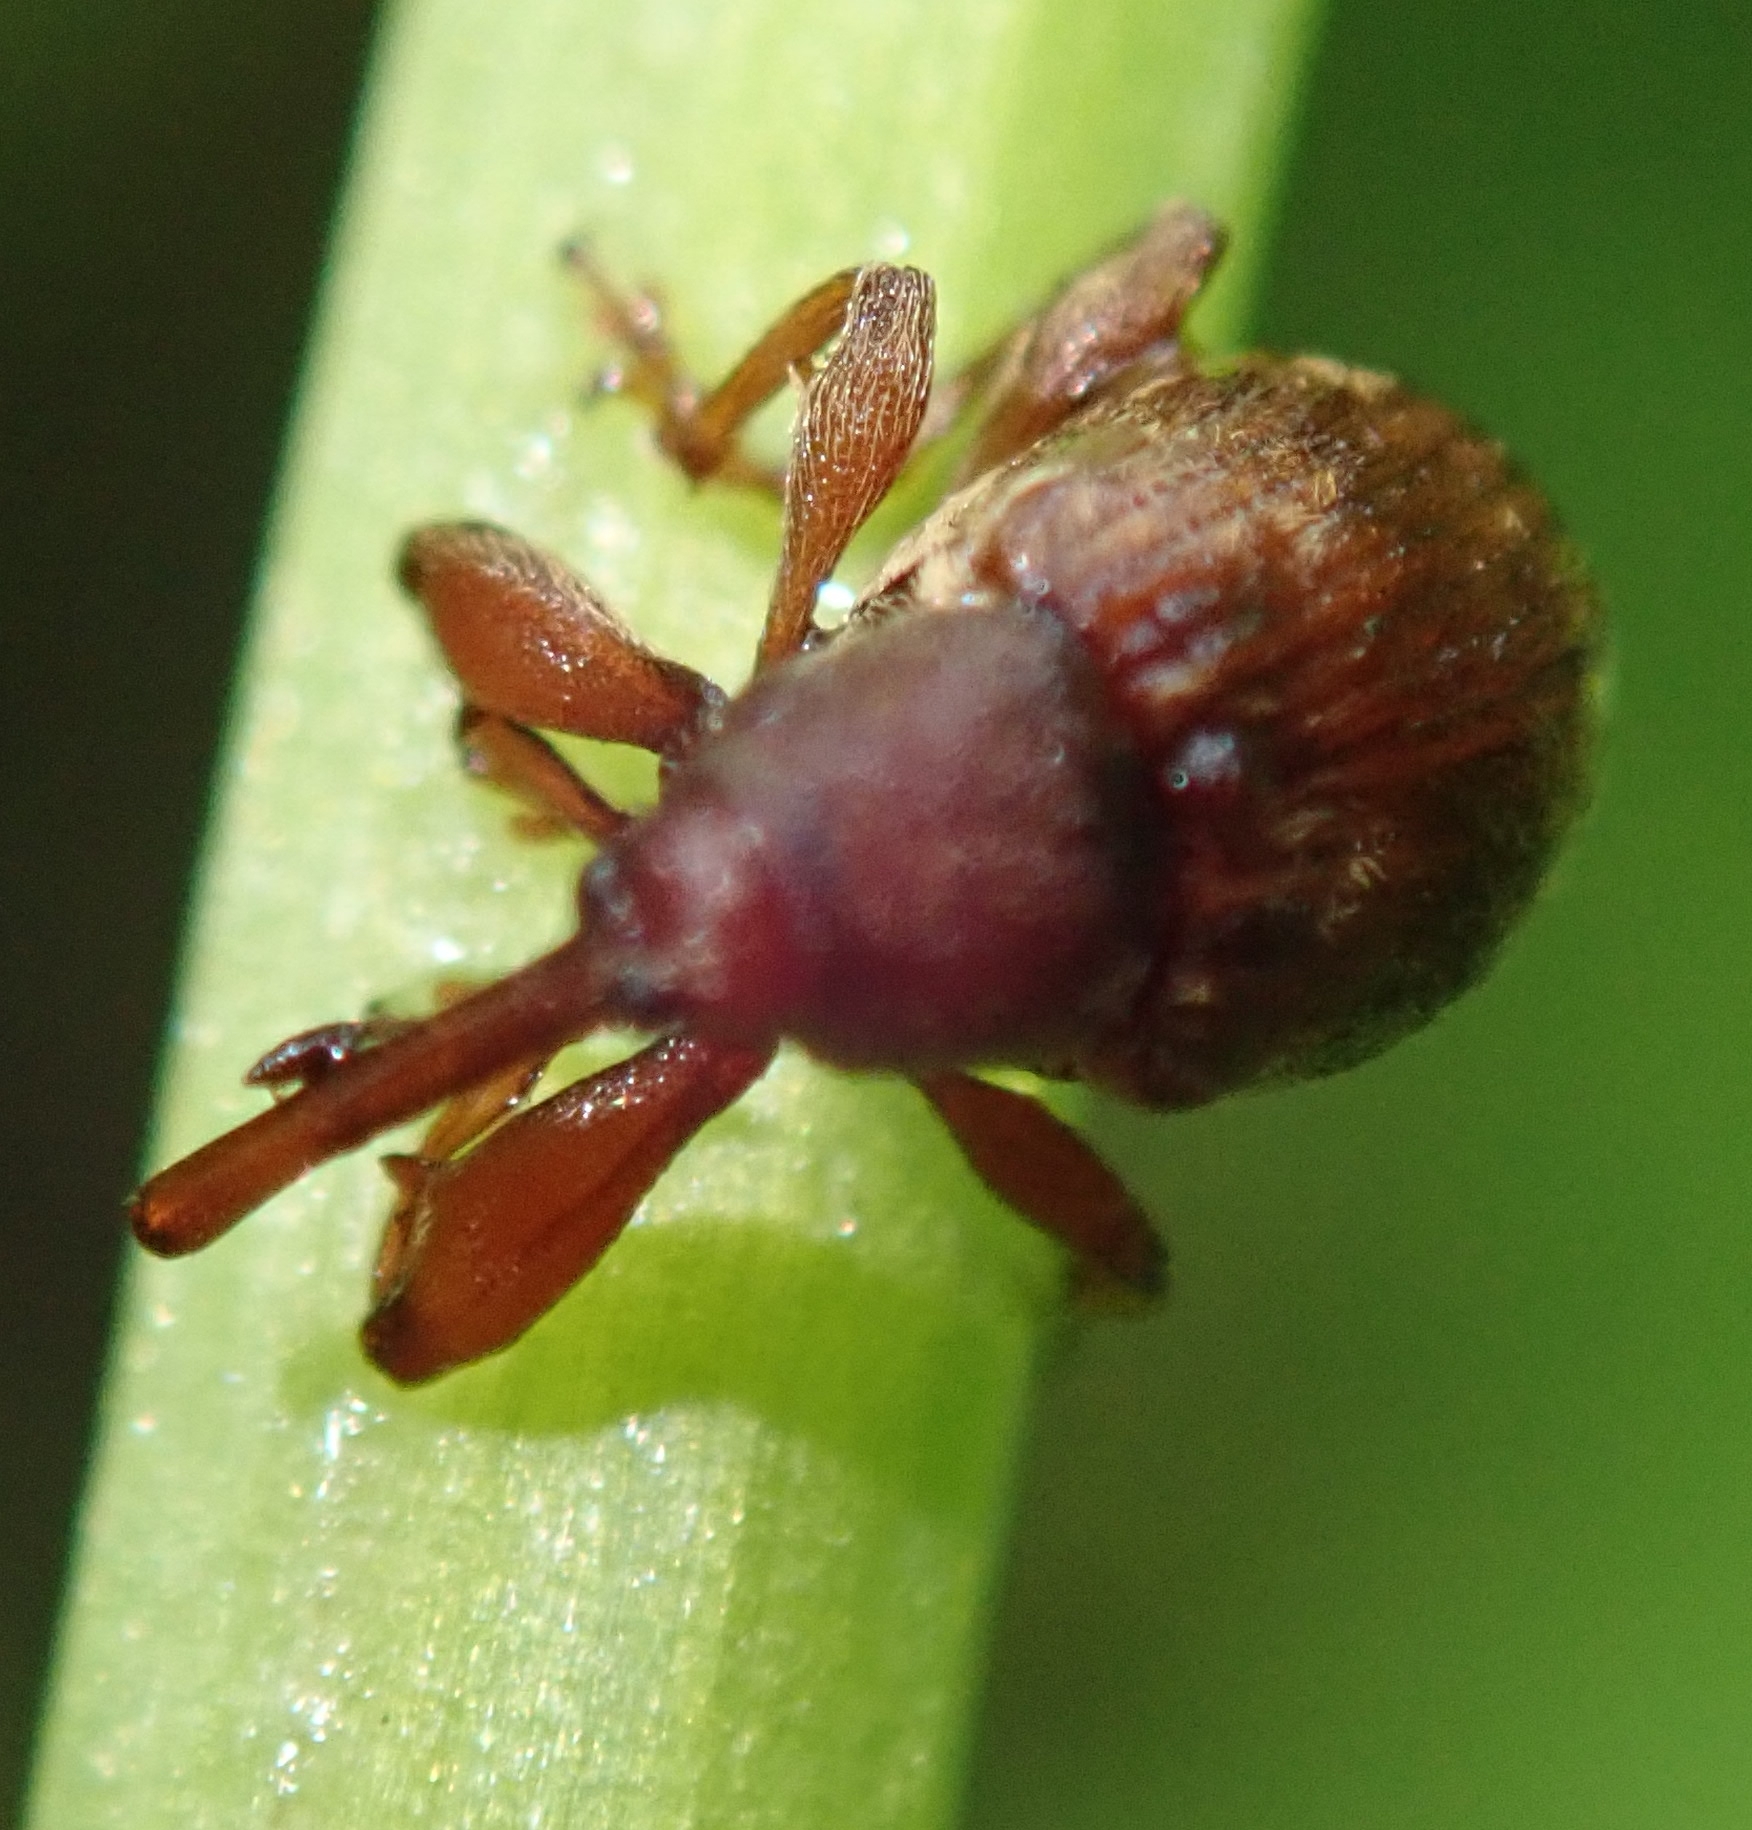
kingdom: Animalia
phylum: Arthropoda
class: Insecta
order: Coleoptera
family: Curculionidae
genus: Anthonomus
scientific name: Anthonomus rectirostris
